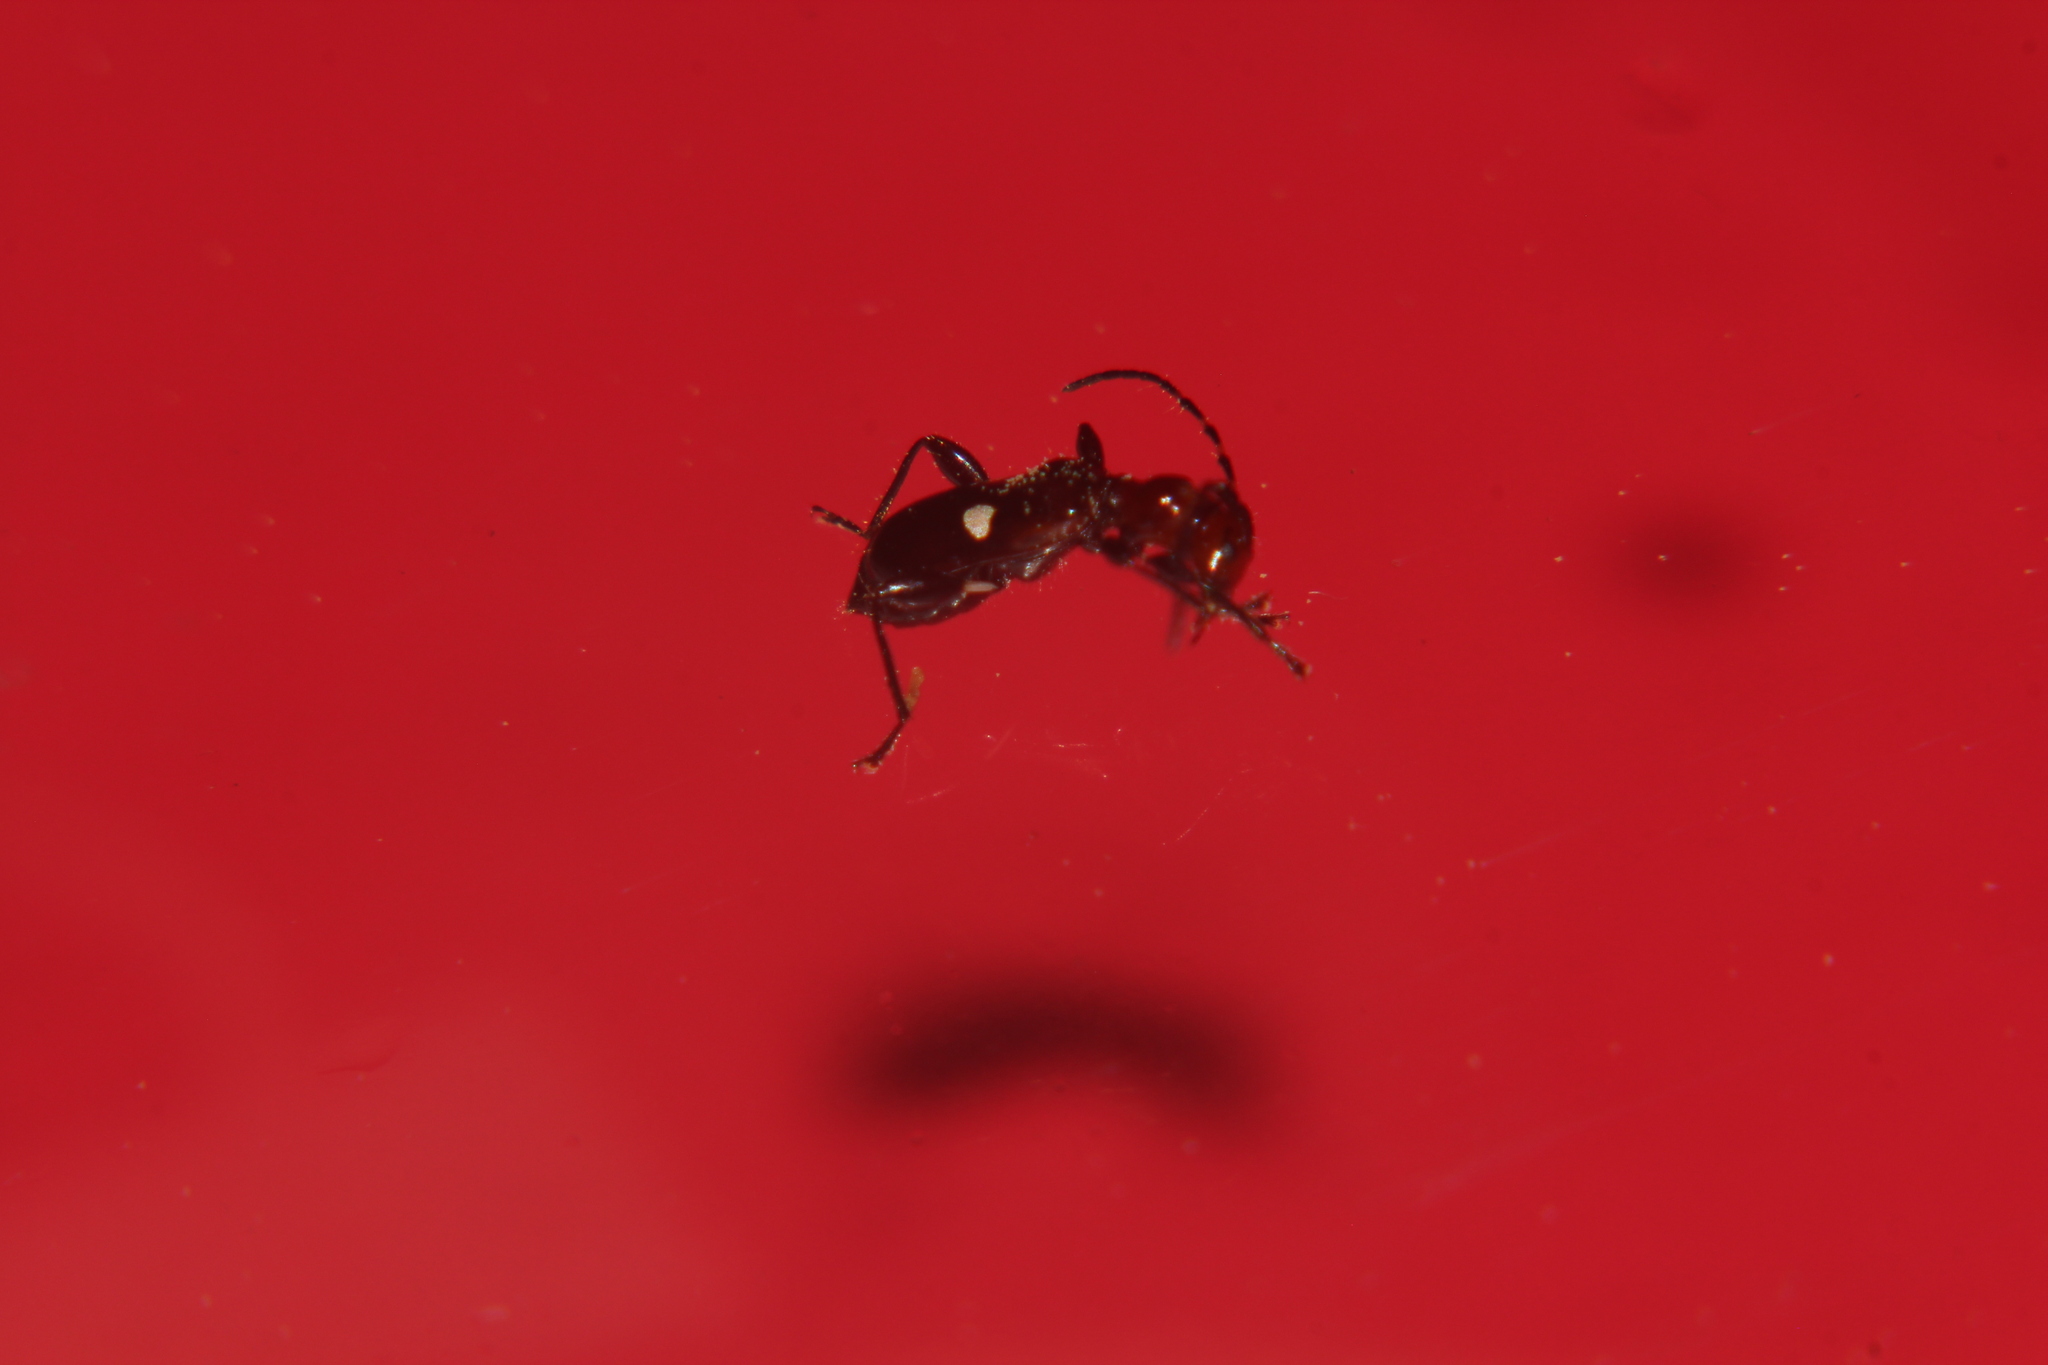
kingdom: Animalia
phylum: Arthropoda
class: Insecta
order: Coleoptera
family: Cerambycidae
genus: Zorion
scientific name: Zorion batesi
